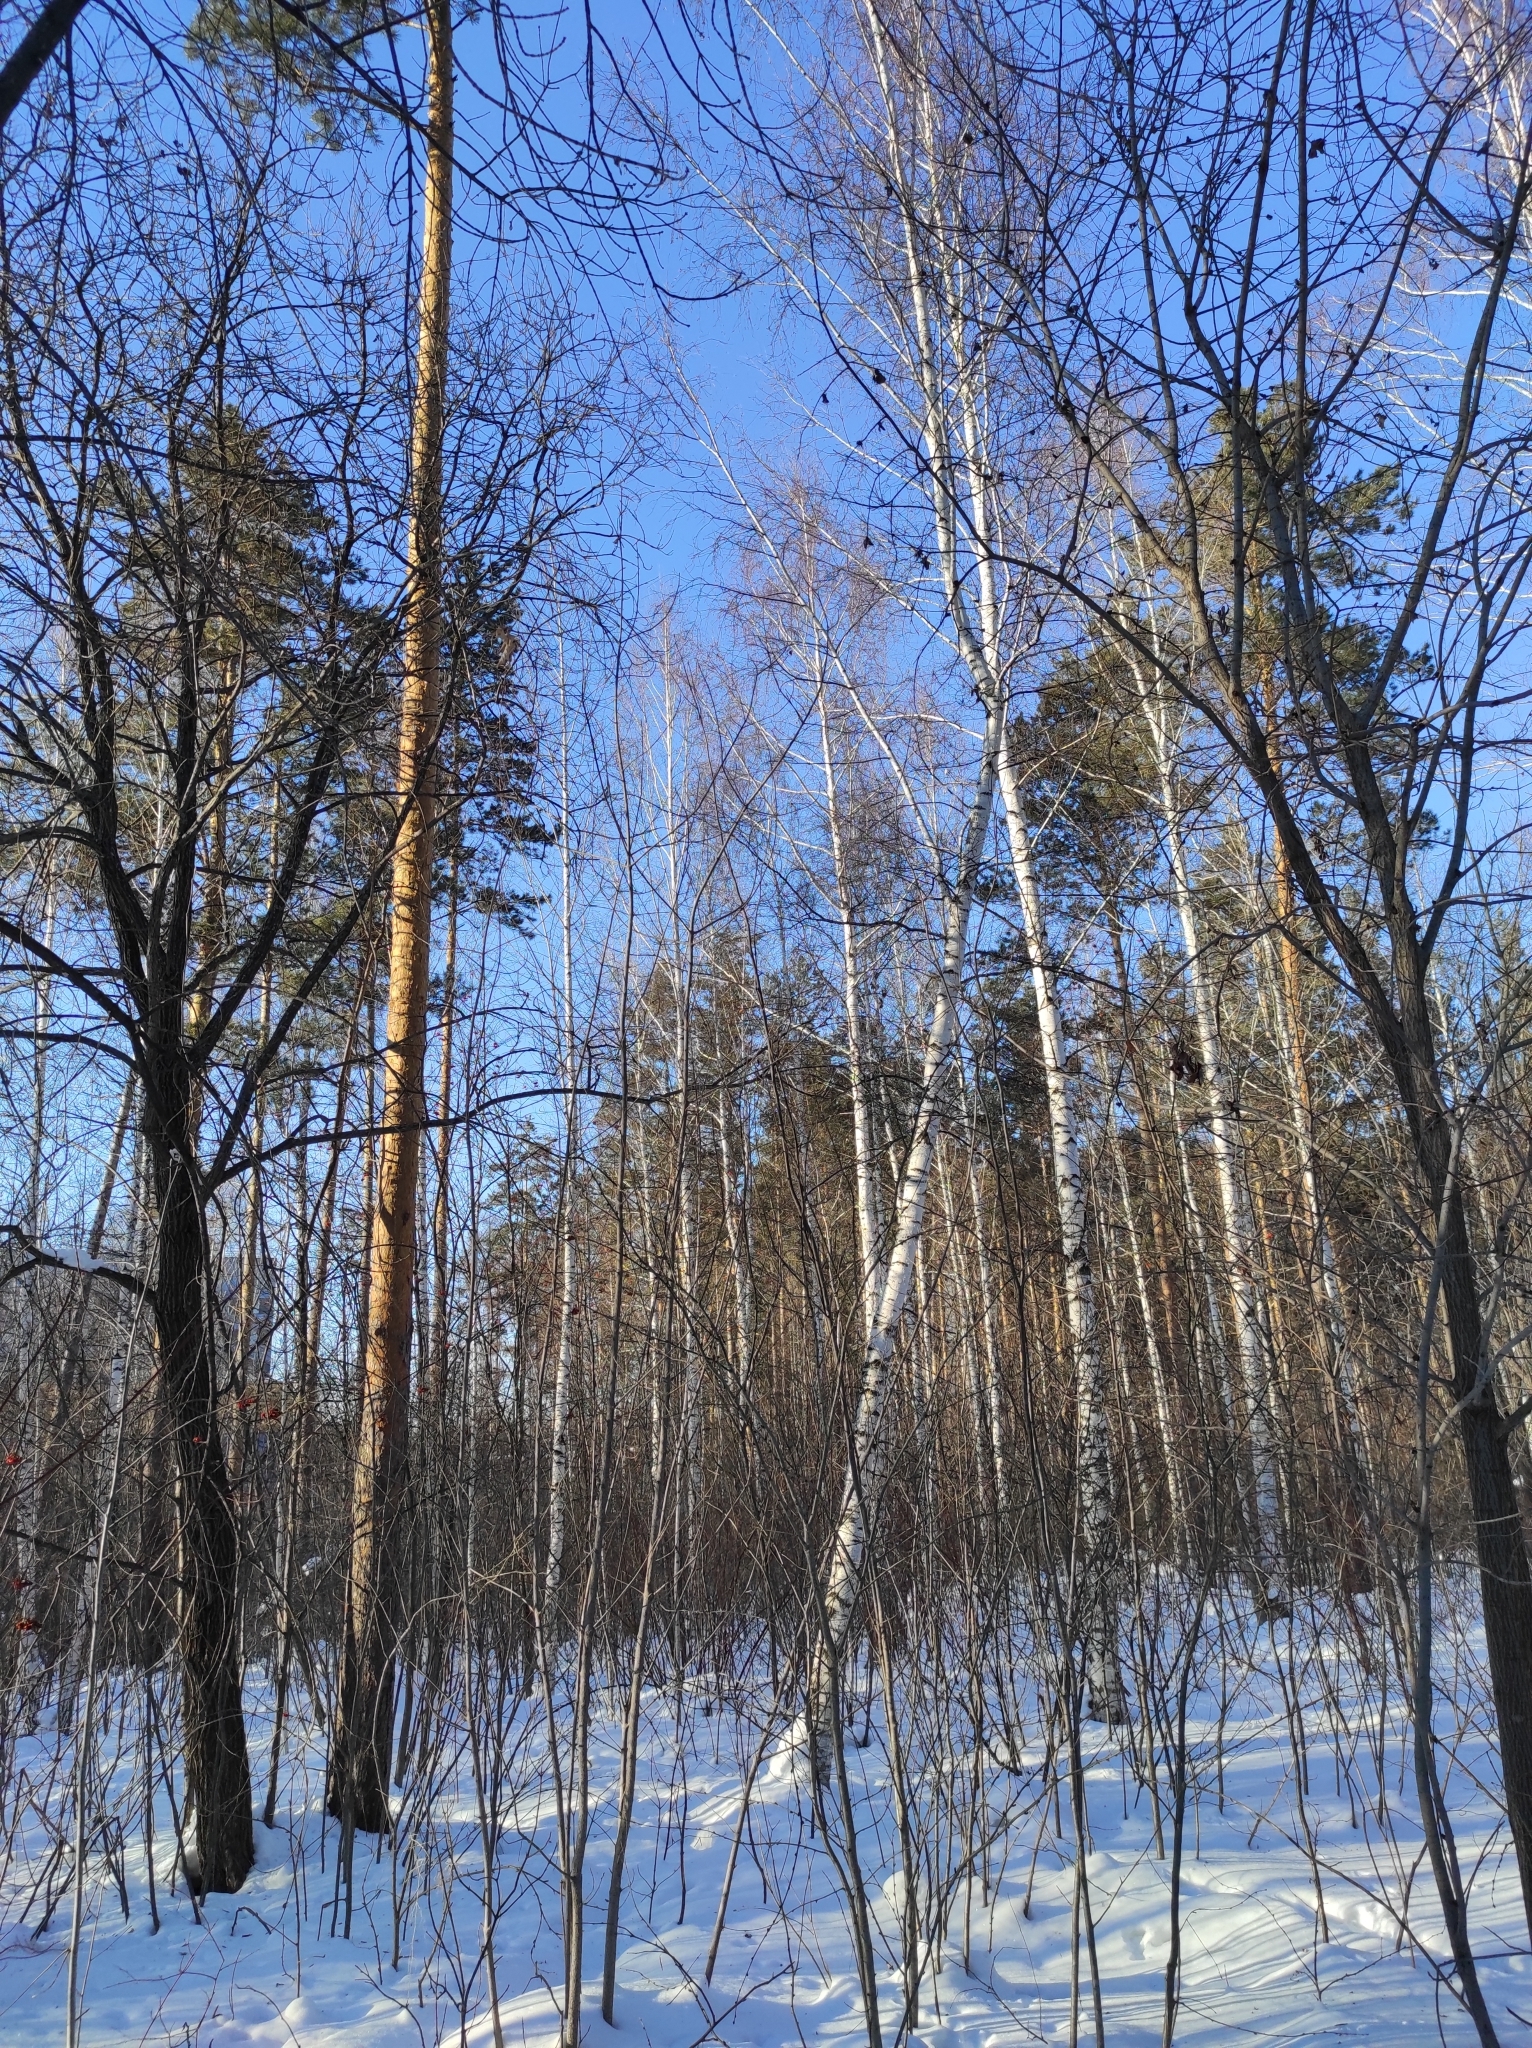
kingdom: Plantae
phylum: Tracheophyta
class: Pinopsida
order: Pinales
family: Pinaceae
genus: Pinus
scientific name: Pinus sylvestris
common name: Scots pine
